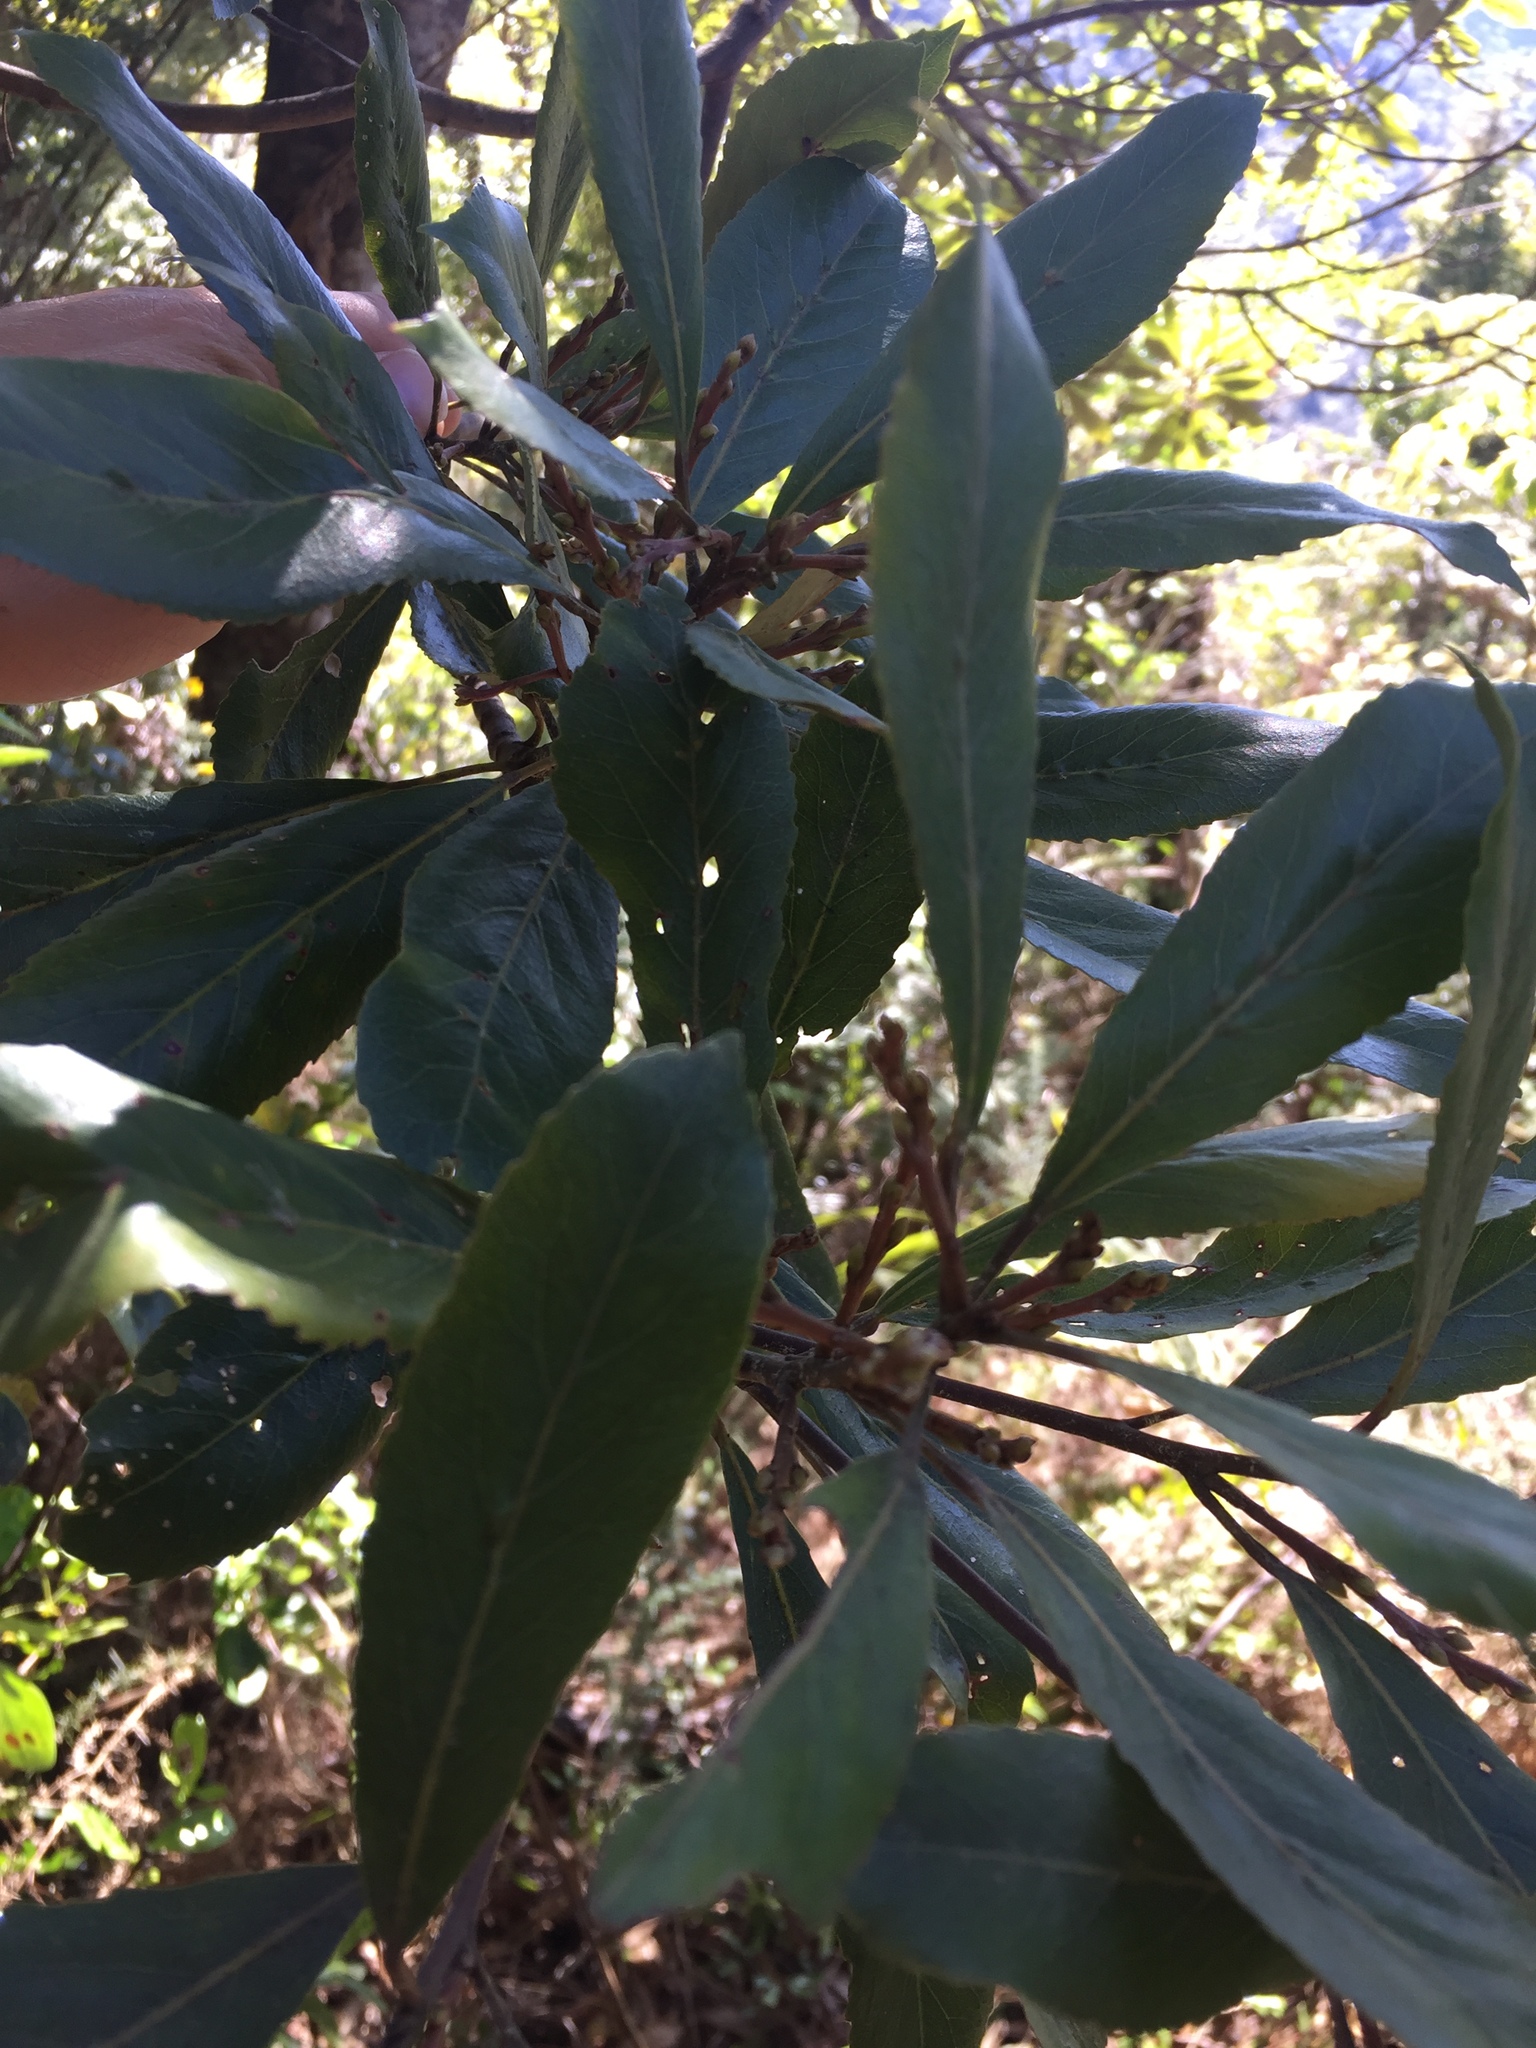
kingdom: Plantae
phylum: Tracheophyta
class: Magnoliopsida
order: Oxalidales
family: Elaeocarpaceae
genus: Elaeocarpus
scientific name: Elaeocarpus dentatus
